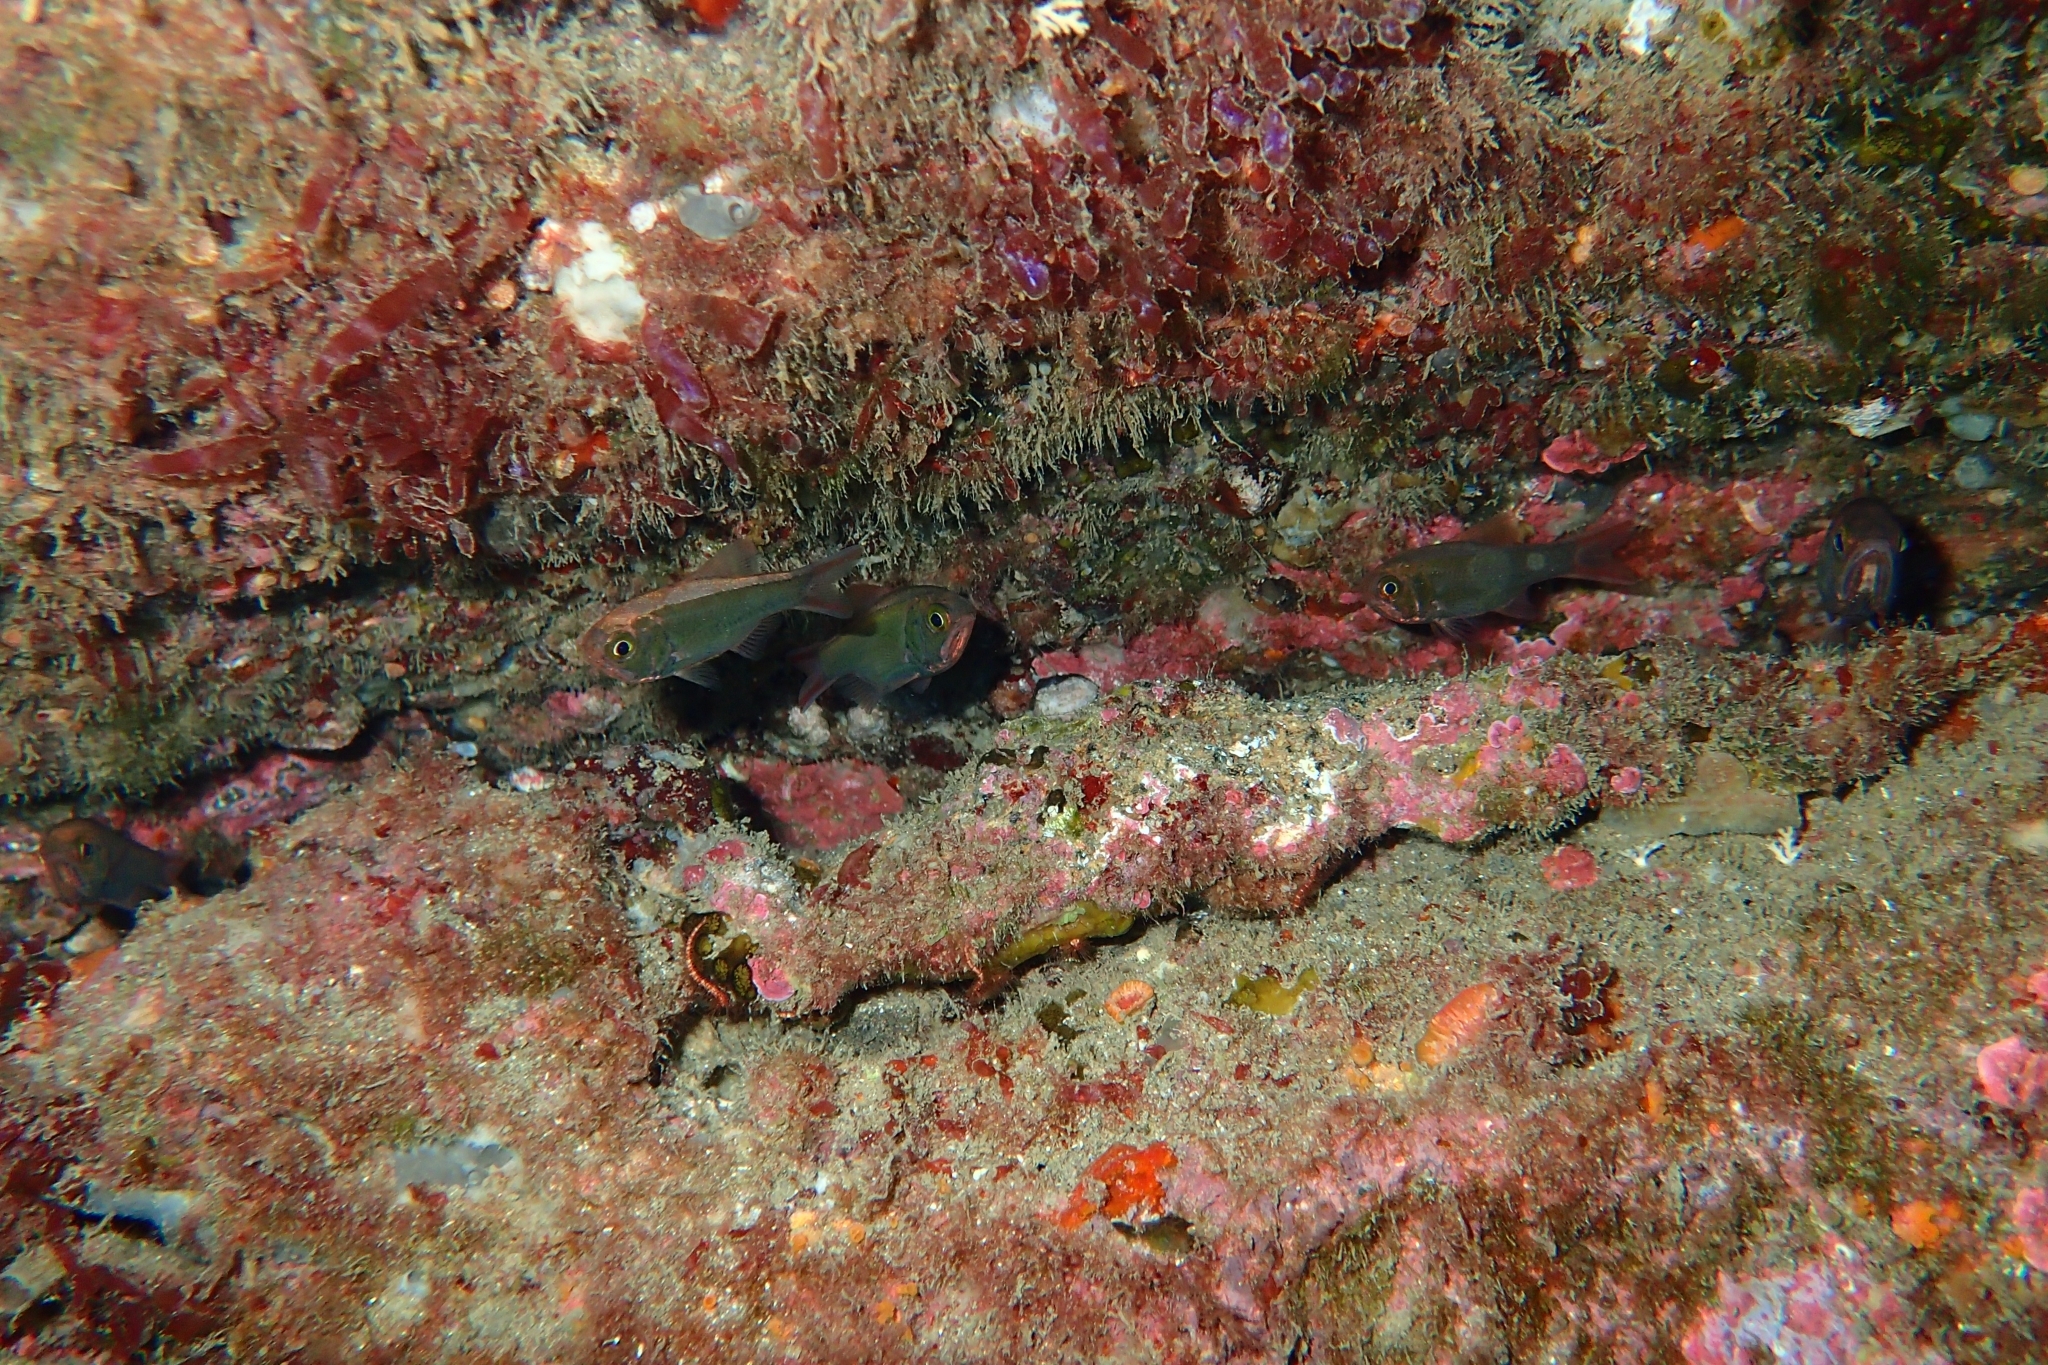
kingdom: Animalia
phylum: Chordata
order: Beryciformes
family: Trachichthyidae
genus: Optivus
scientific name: Optivus elongatus
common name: Slender roughy
